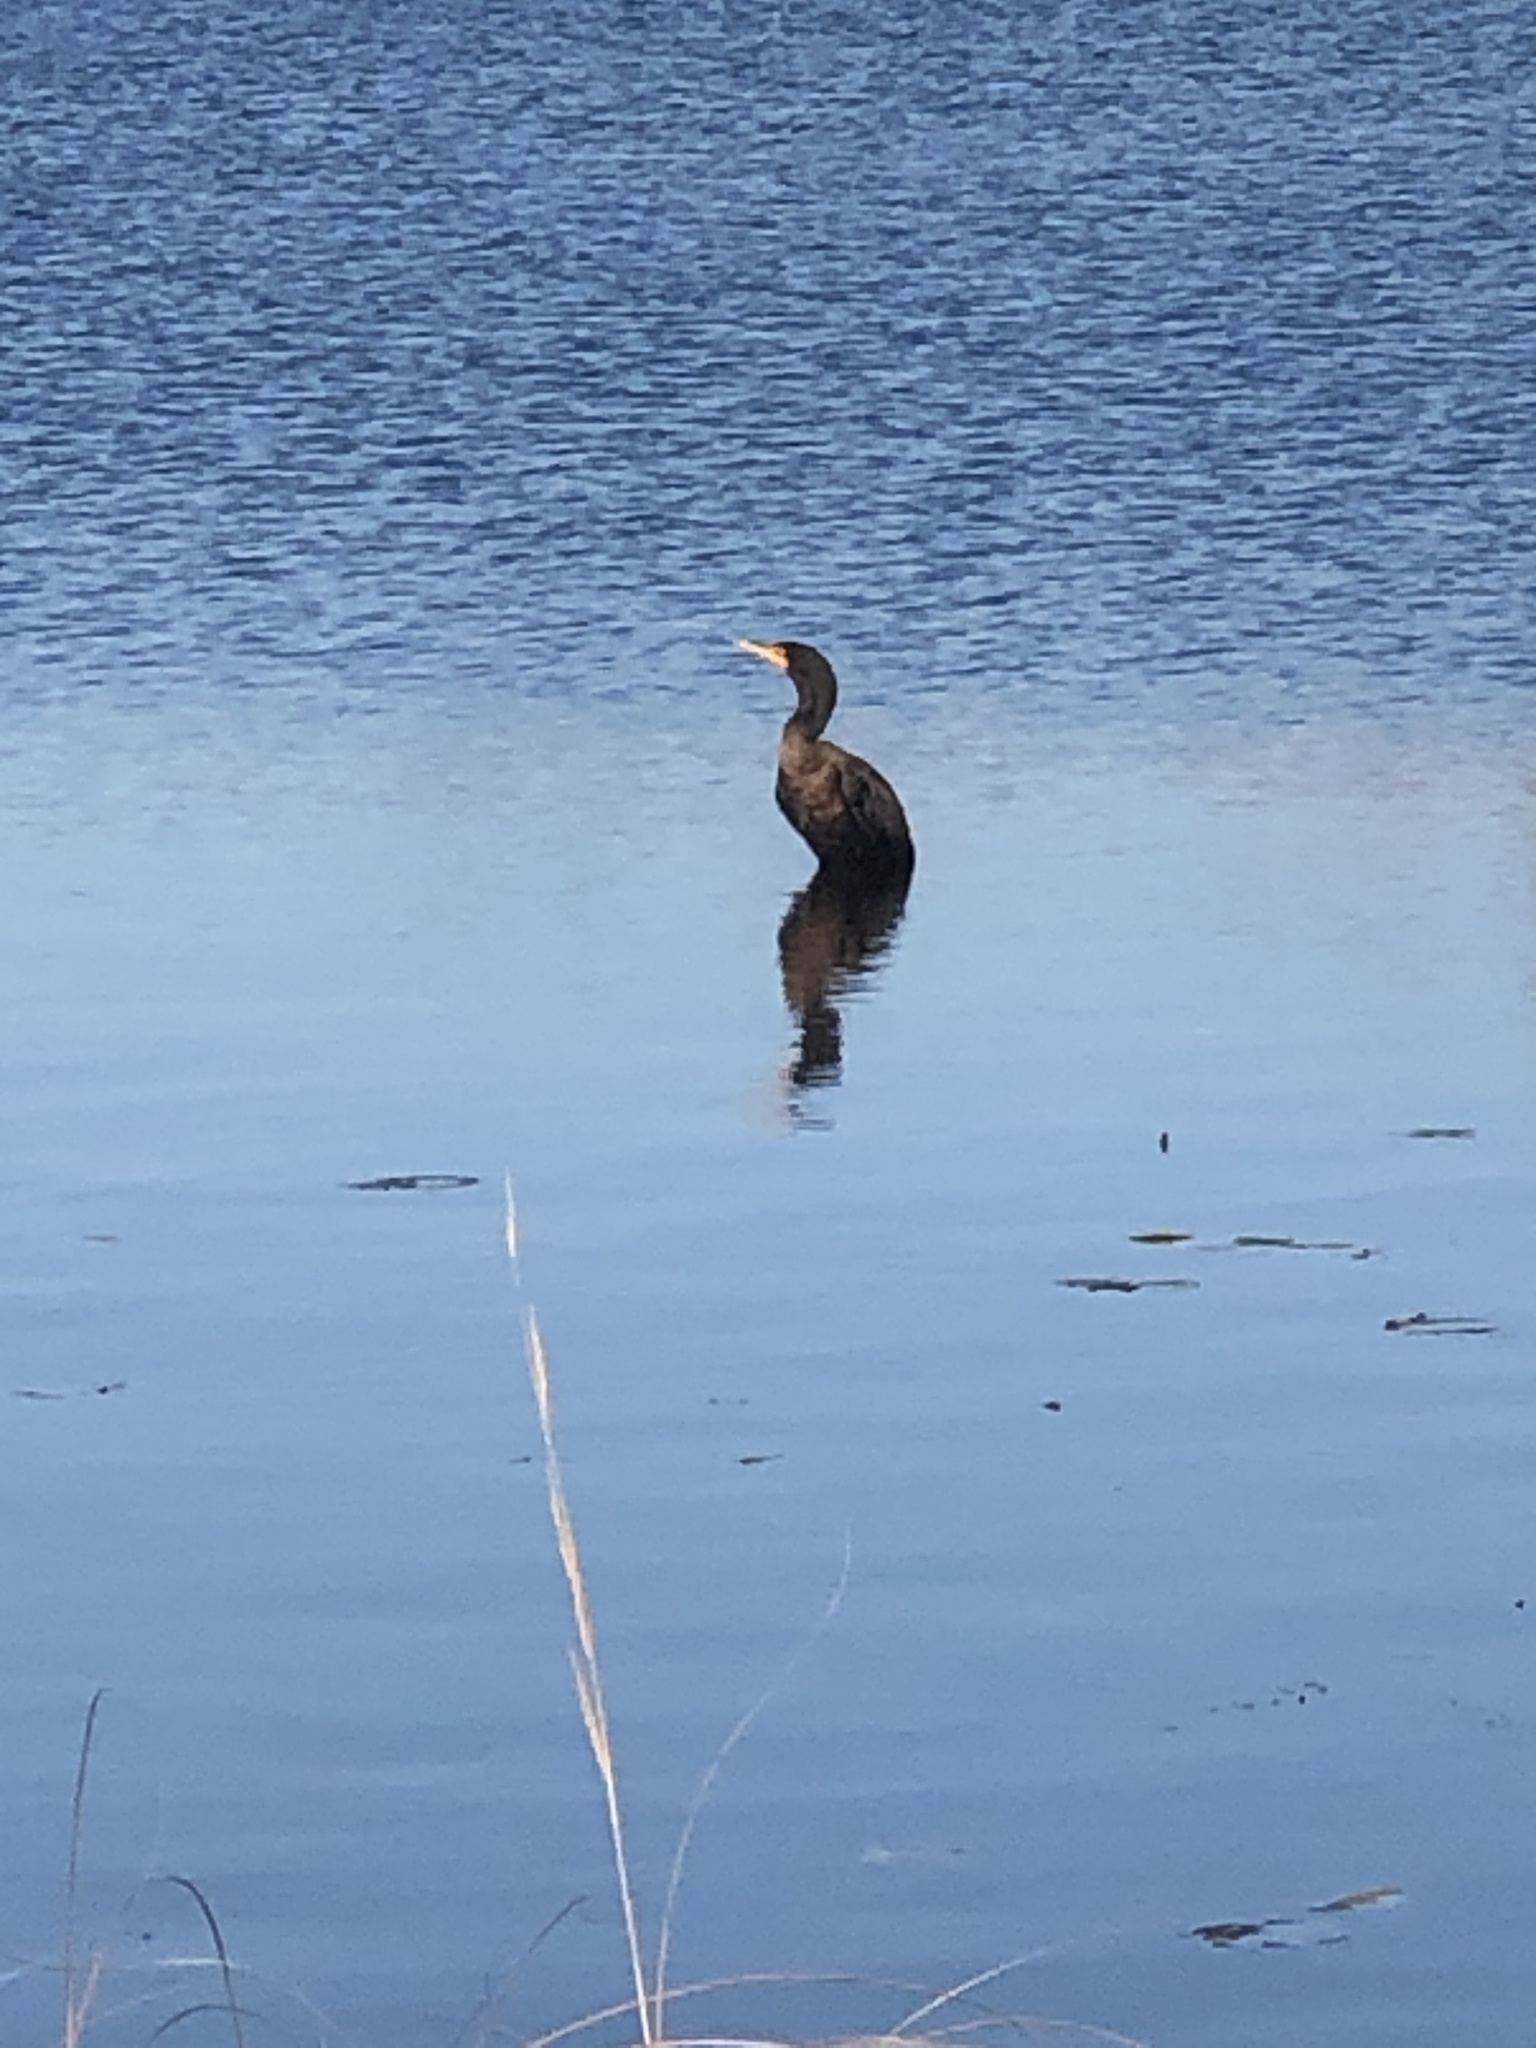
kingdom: Animalia
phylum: Chordata
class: Aves
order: Suliformes
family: Phalacrocoracidae
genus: Phalacrocorax
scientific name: Phalacrocorax auritus
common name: Double-crested cormorant
